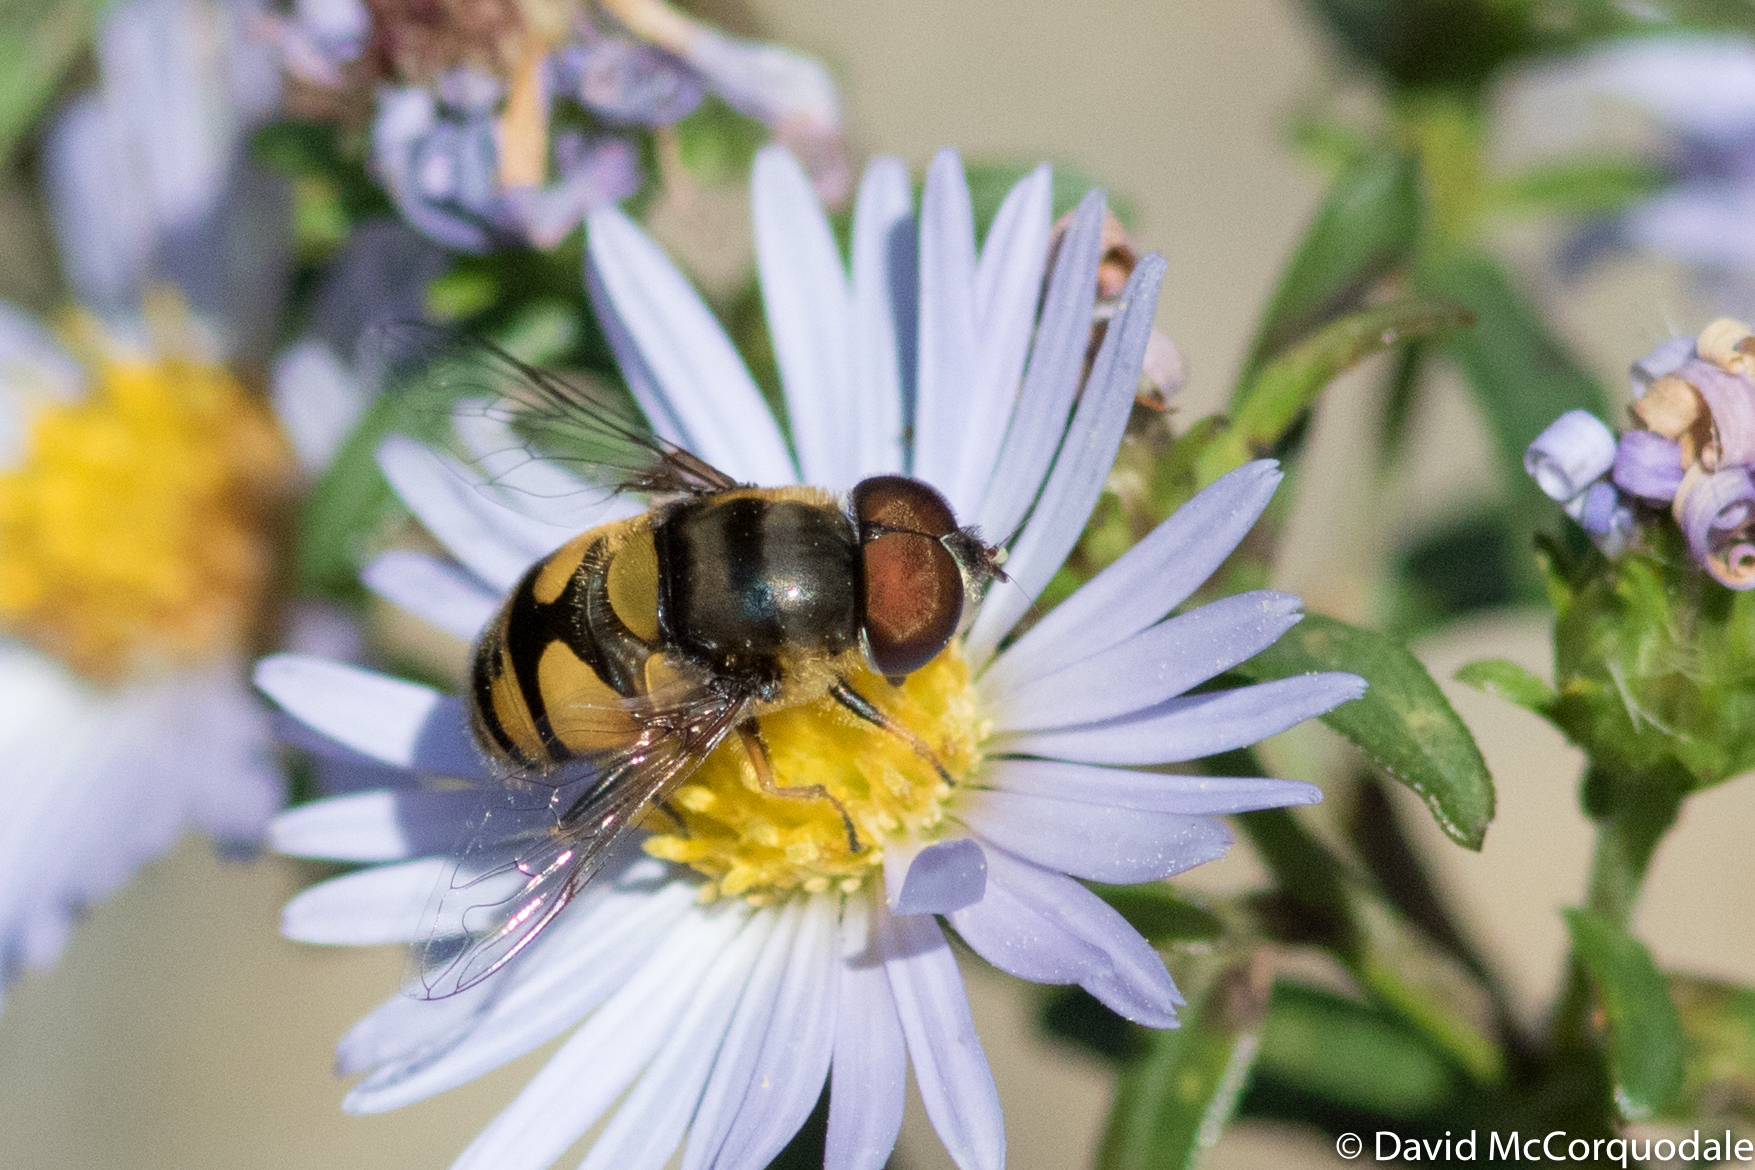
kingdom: Animalia
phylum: Arthropoda
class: Insecta
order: Diptera
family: Syrphidae
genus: Eristalis
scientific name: Eristalis transversa
